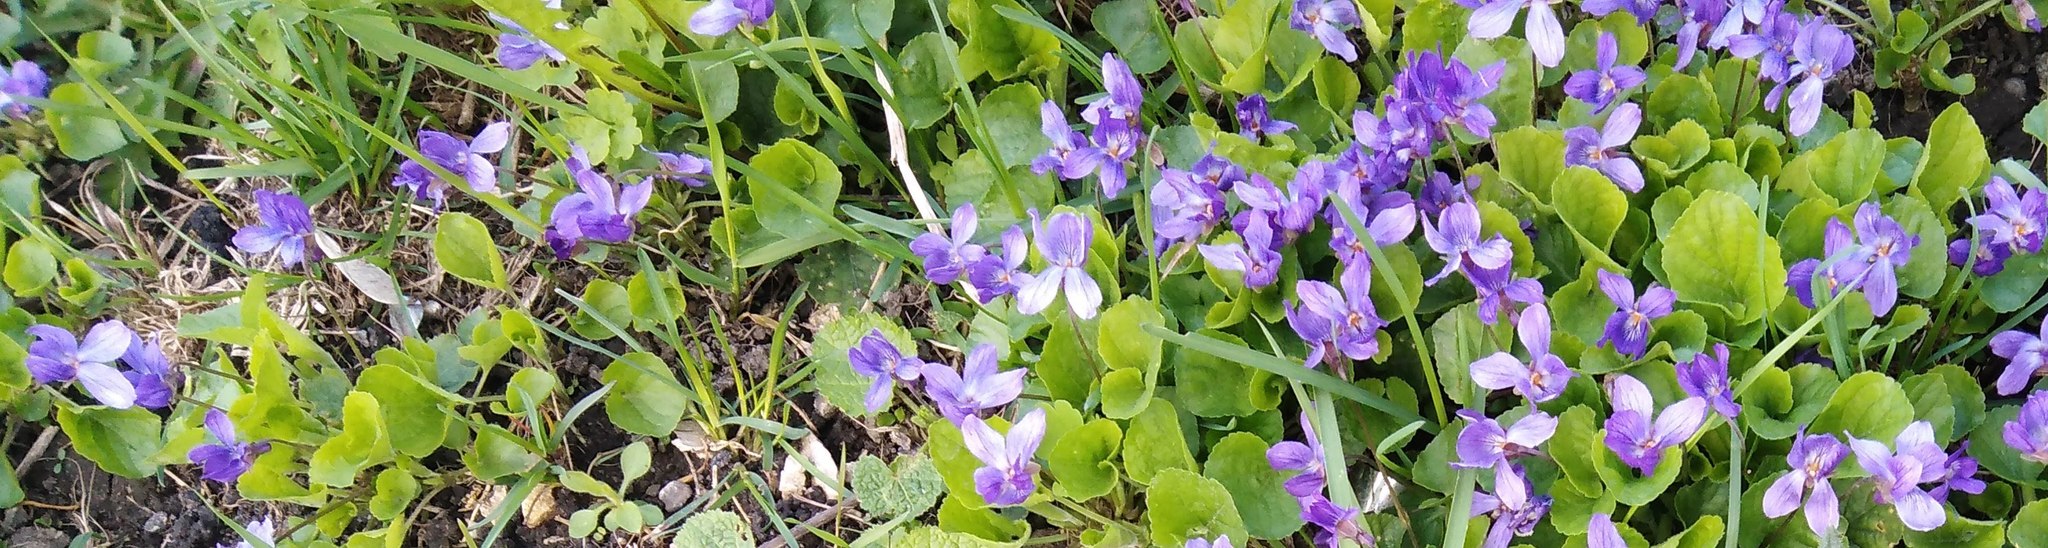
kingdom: Plantae
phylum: Tracheophyta
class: Magnoliopsida
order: Malpighiales
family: Violaceae
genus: Viola
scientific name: Viola odorata
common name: Sweet violet
